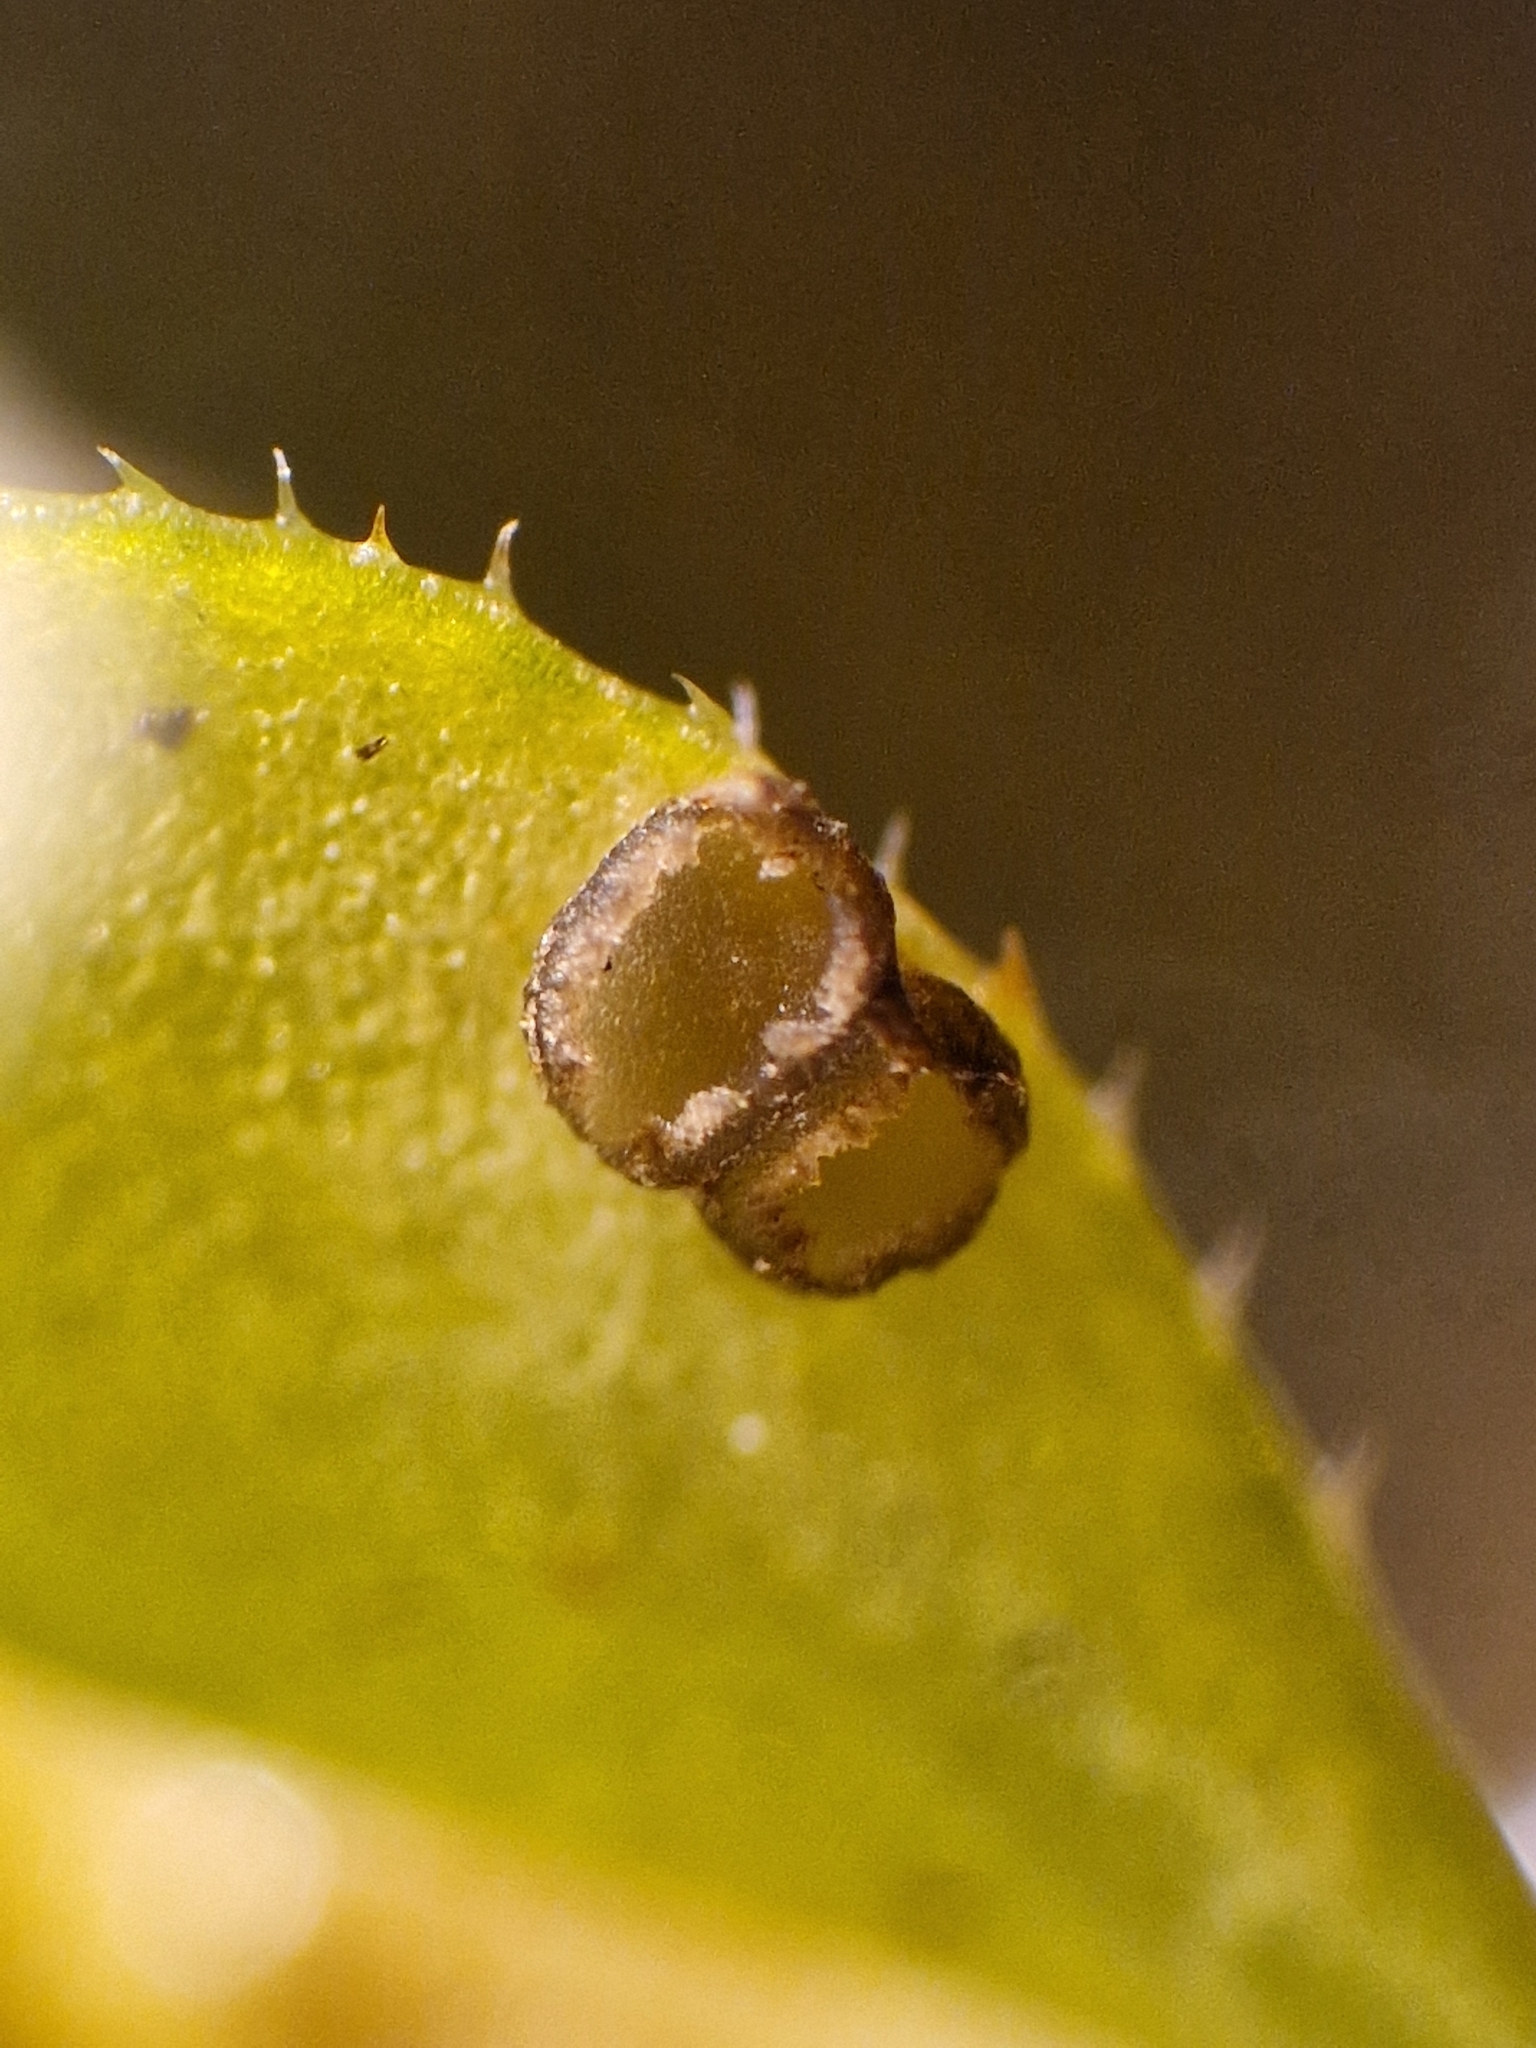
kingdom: Fungi
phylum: Ascomycota
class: Leotiomycetes
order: Helotiales
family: Drepanopezizaceae
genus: Leptotrochila
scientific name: Leptotrochila verrucosa
